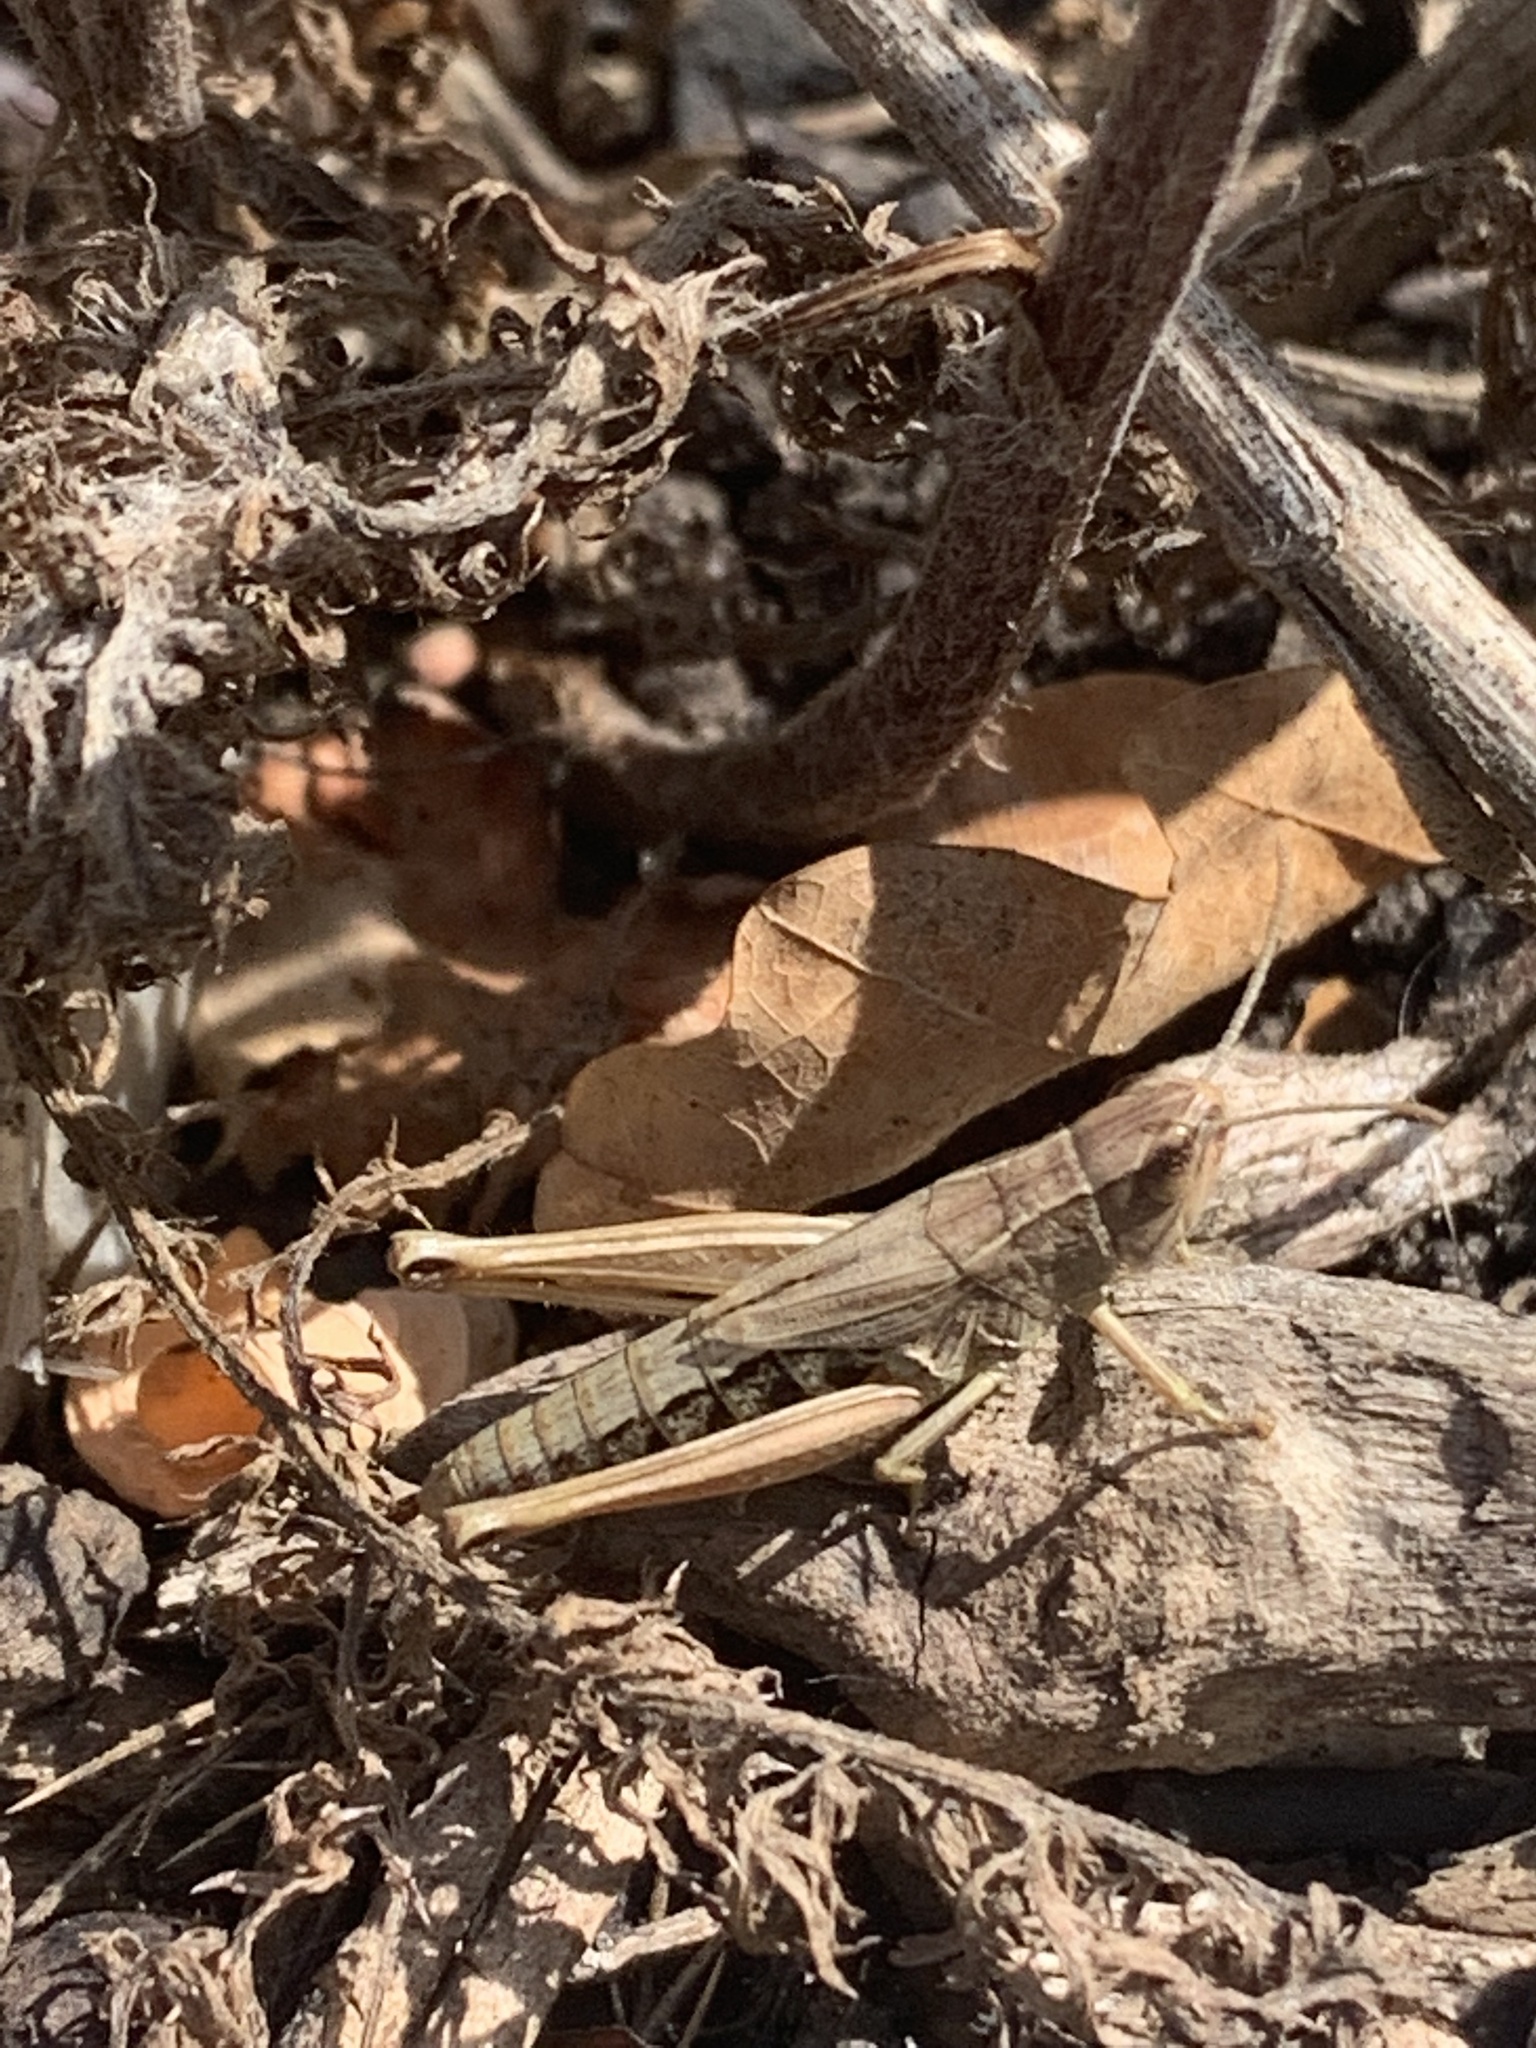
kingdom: Animalia
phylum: Arthropoda
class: Insecta
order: Orthoptera
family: Acrididae
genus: Pseudochorthippus
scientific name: Pseudochorthippus parallelus
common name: Meadow grasshopper
